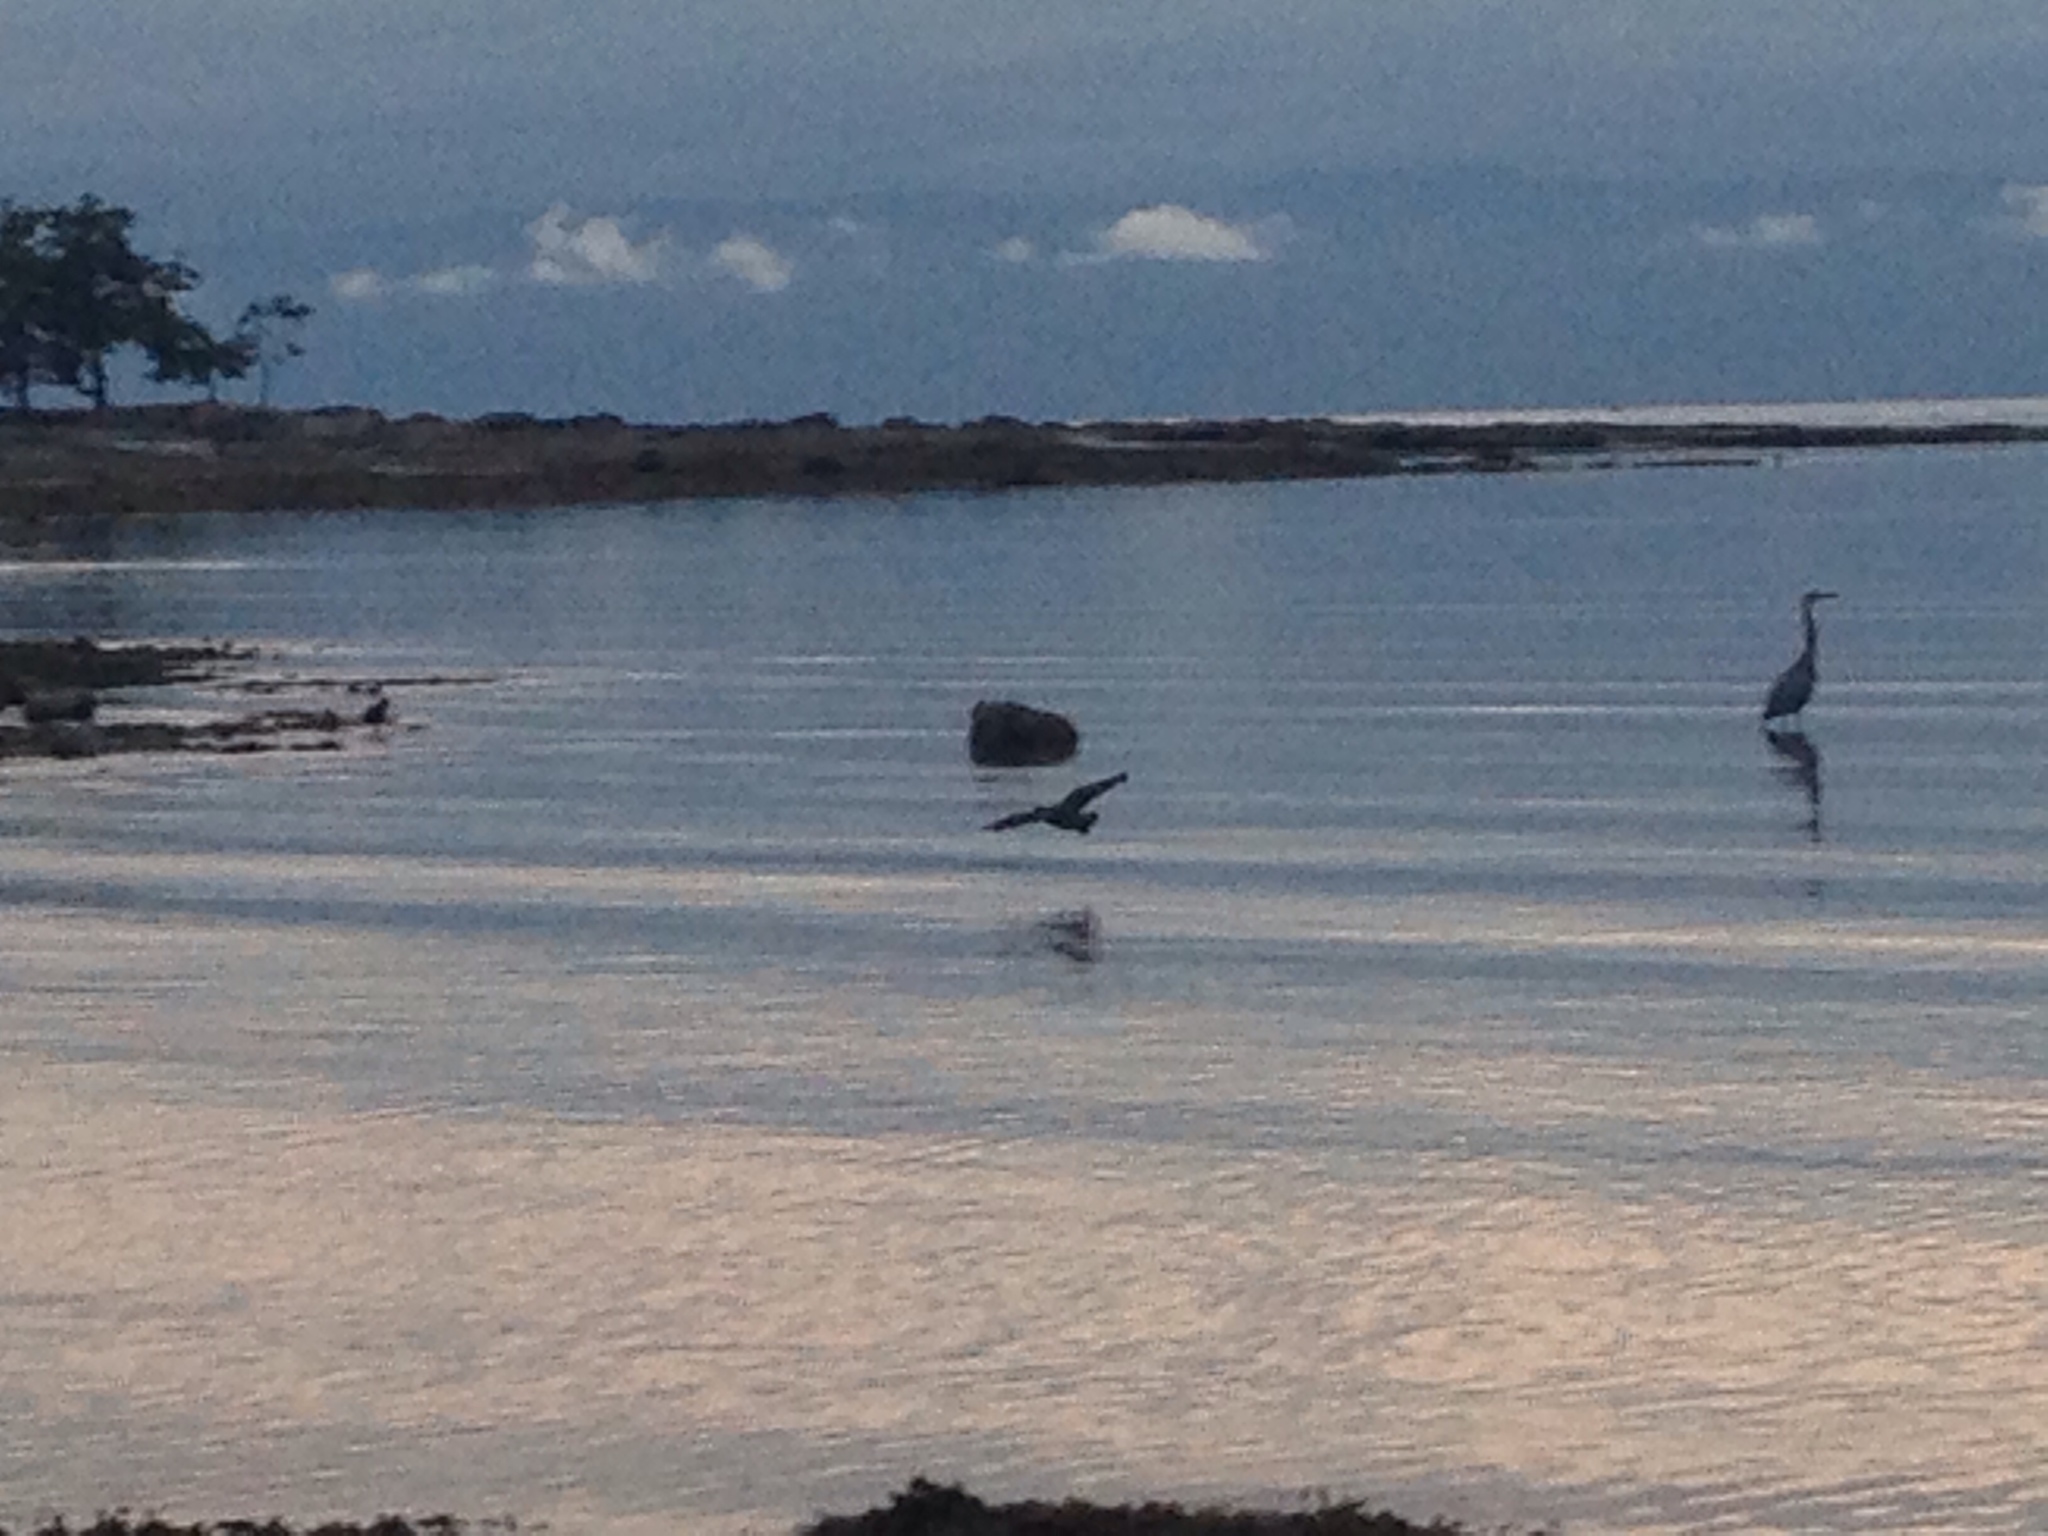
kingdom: Animalia
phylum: Chordata
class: Aves
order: Charadriiformes
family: Haematopodidae
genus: Haematopus
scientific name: Haematopus bachmani
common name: Black oystercatcher
